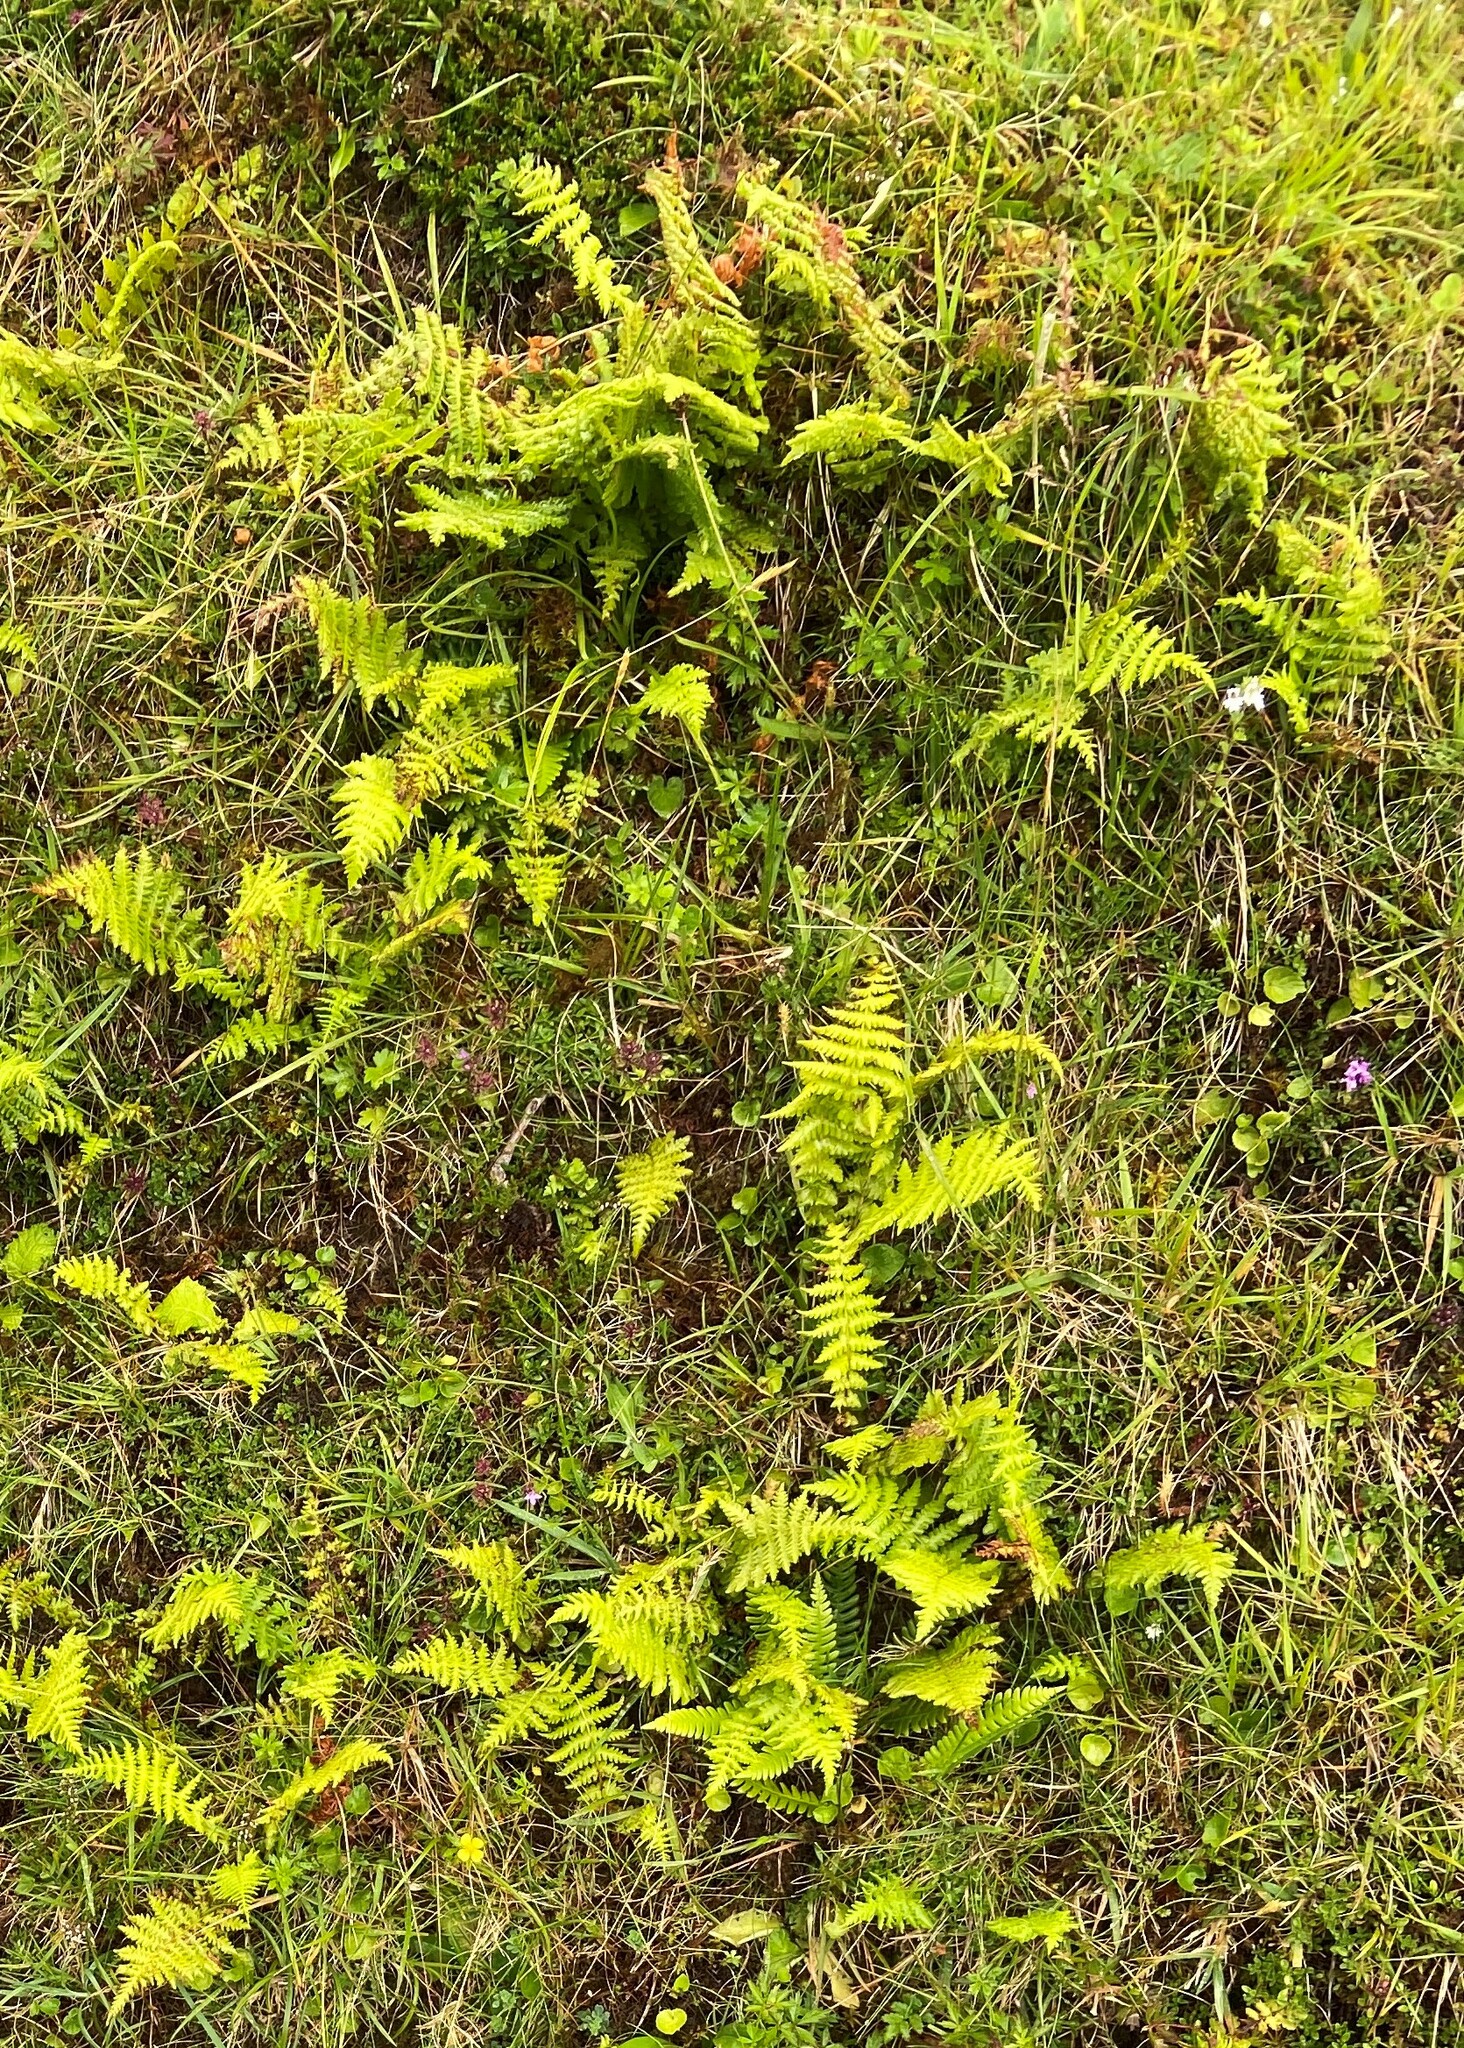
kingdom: Plantae
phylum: Tracheophyta
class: Polypodiopsida
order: Polypodiales
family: Thelypteridaceae
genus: Oreopteris
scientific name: Oreopteris limbosperma
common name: Lemon-scented fern
